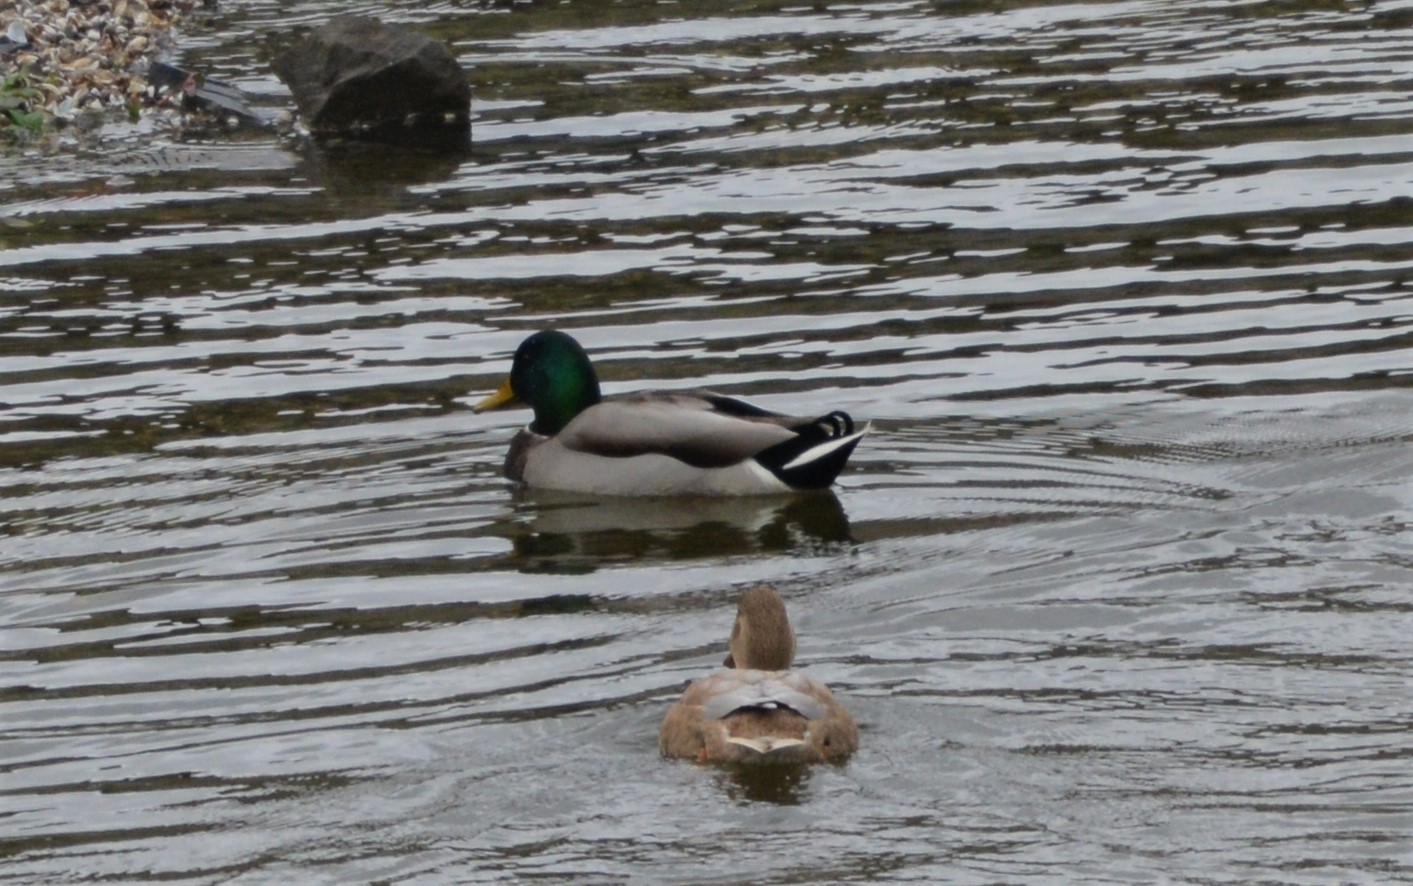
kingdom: Animalia
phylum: Chordata
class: Aves
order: Anseriformes
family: Anatidae
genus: Anas
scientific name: Anas platyrhynchos
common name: Mallard
